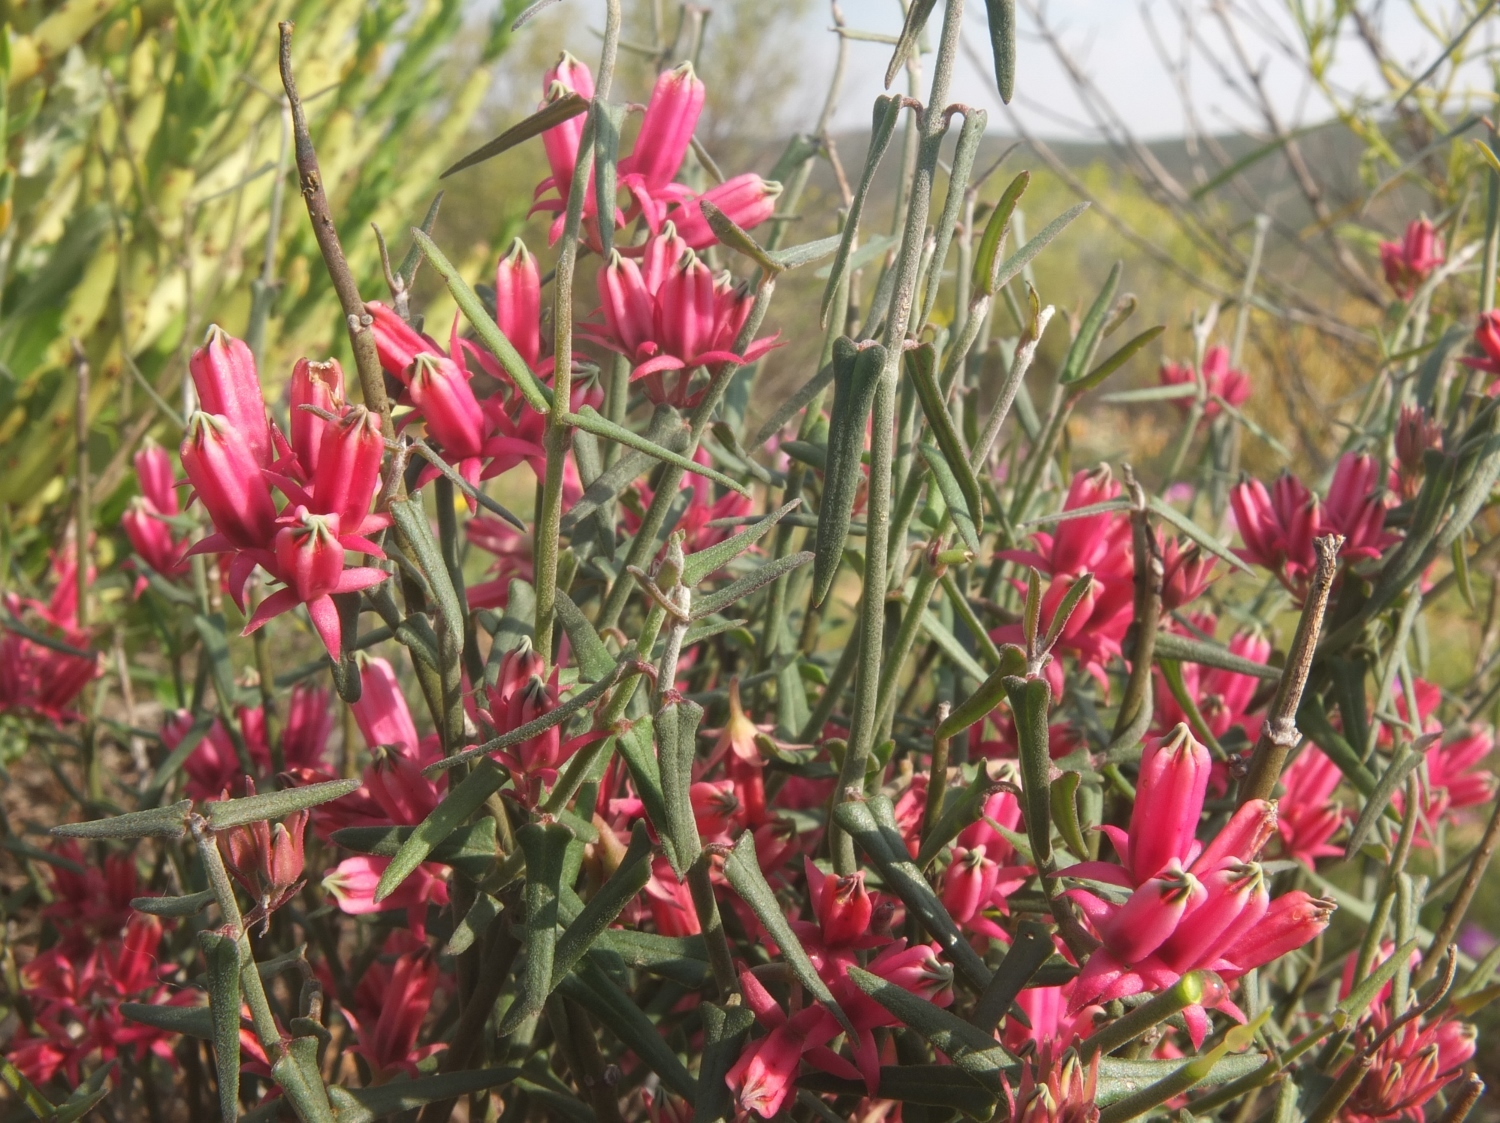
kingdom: Plantae
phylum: Tracheophyta
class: Magnoliopsida
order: Gentianales
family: Apocynaceae
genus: Microloma
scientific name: Microloma sagittatum
